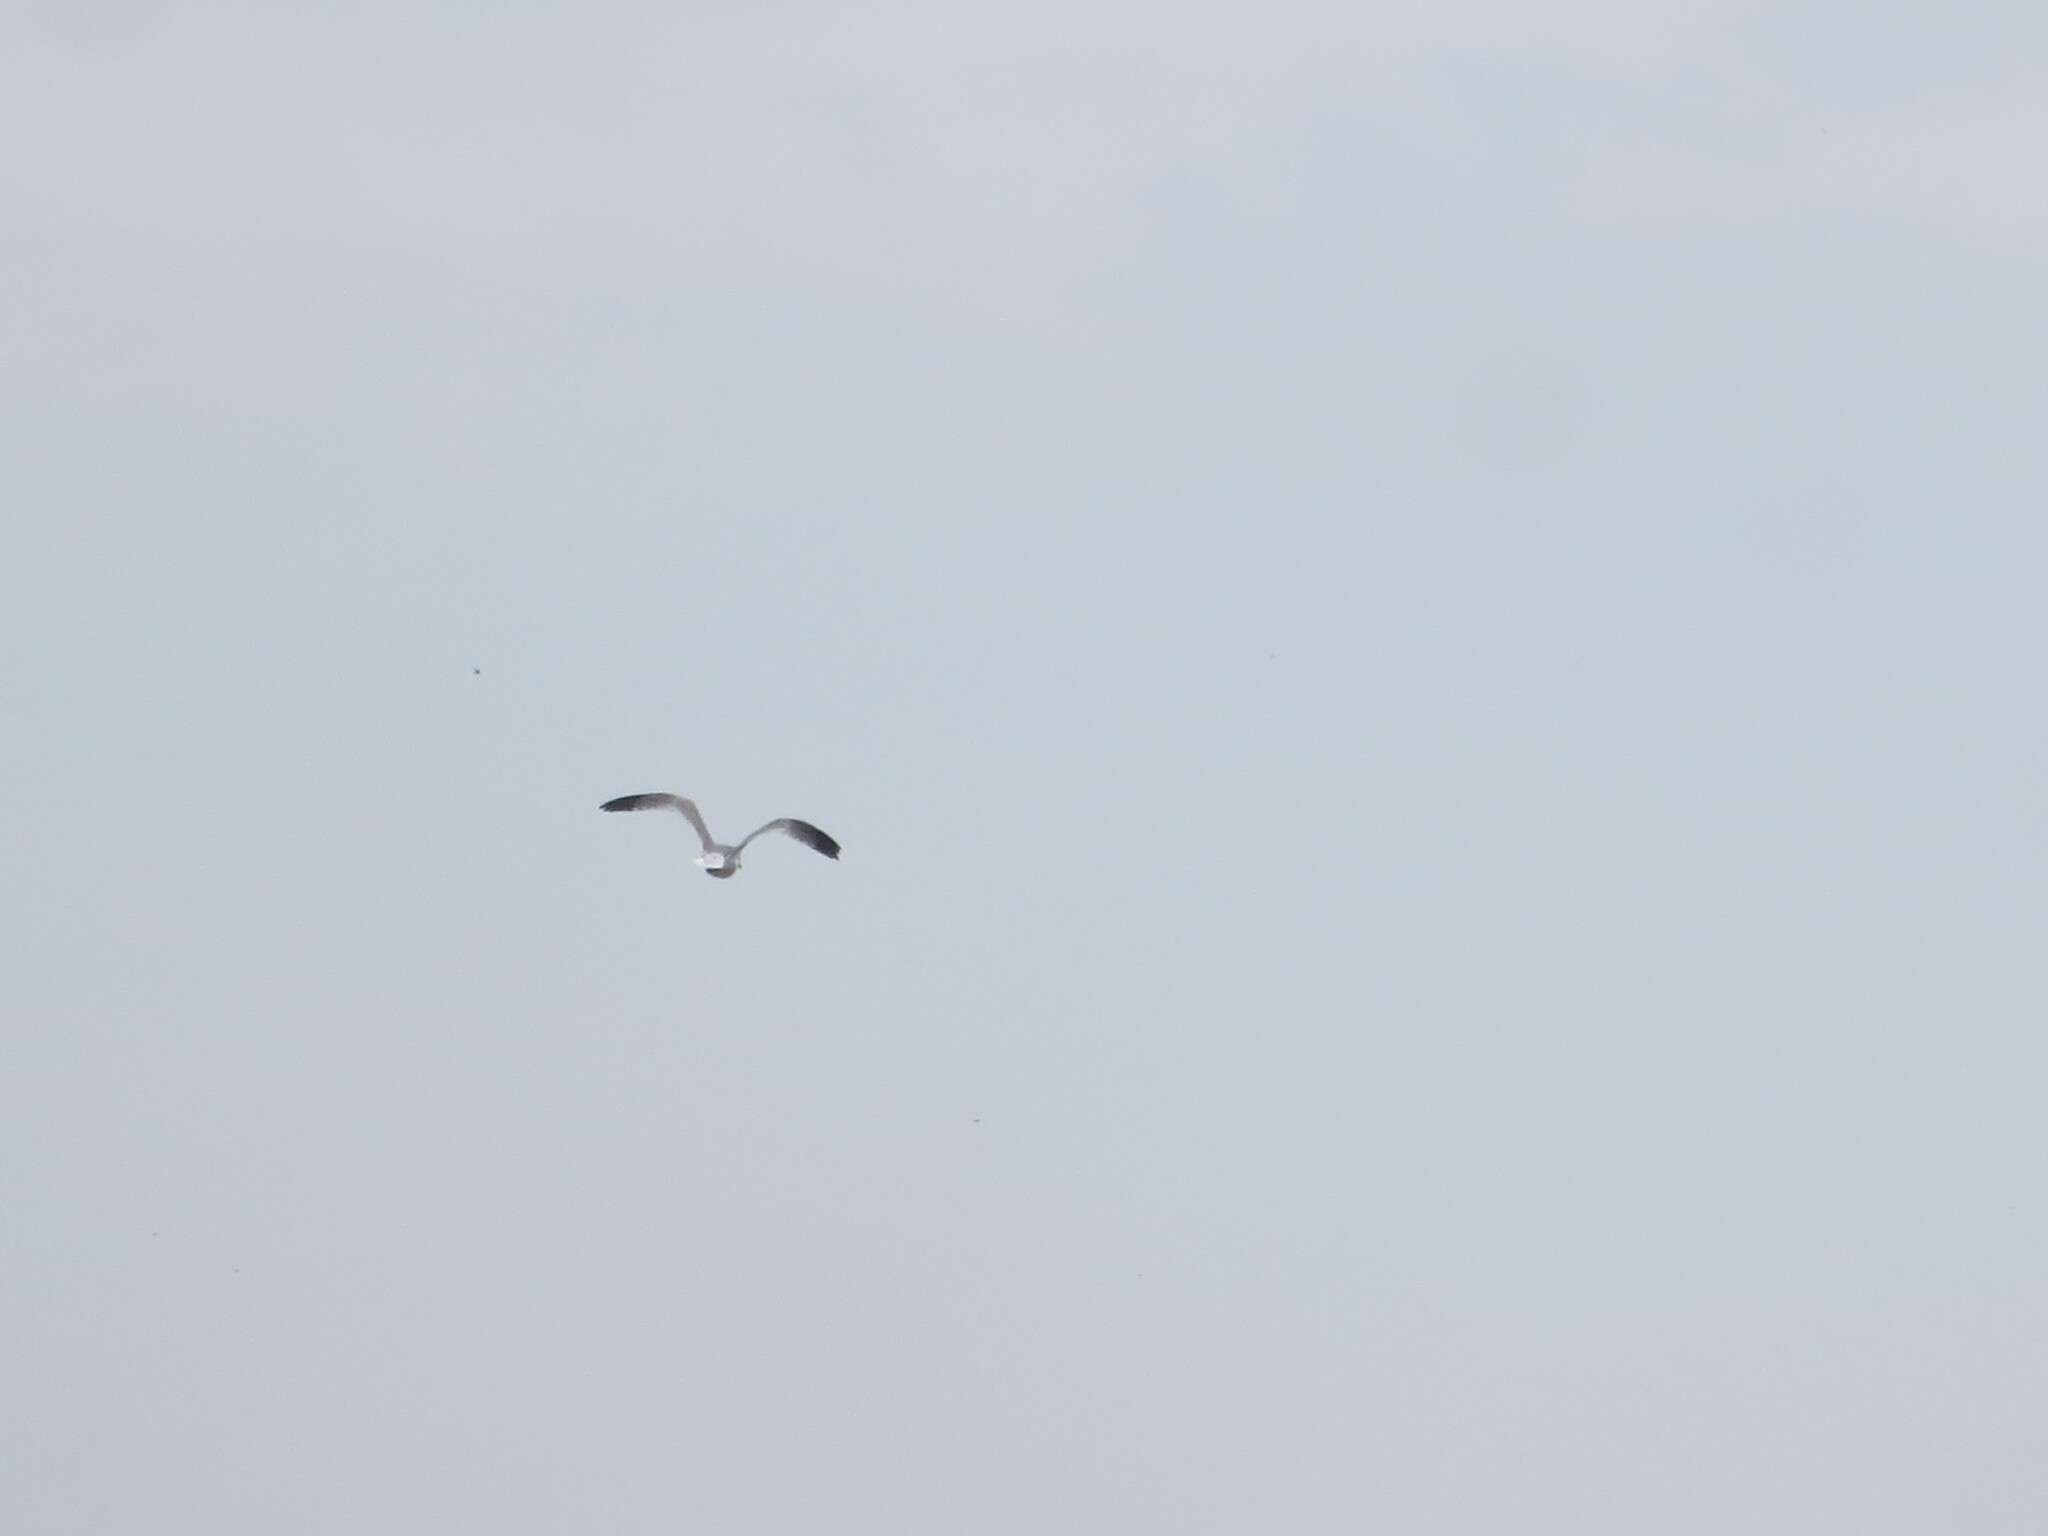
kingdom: Animalia
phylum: Chordata
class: Aves
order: Charadriiformes
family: Laridae
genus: Leucophaeus
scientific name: Leucophaeus atricilla
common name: Laughing gull
